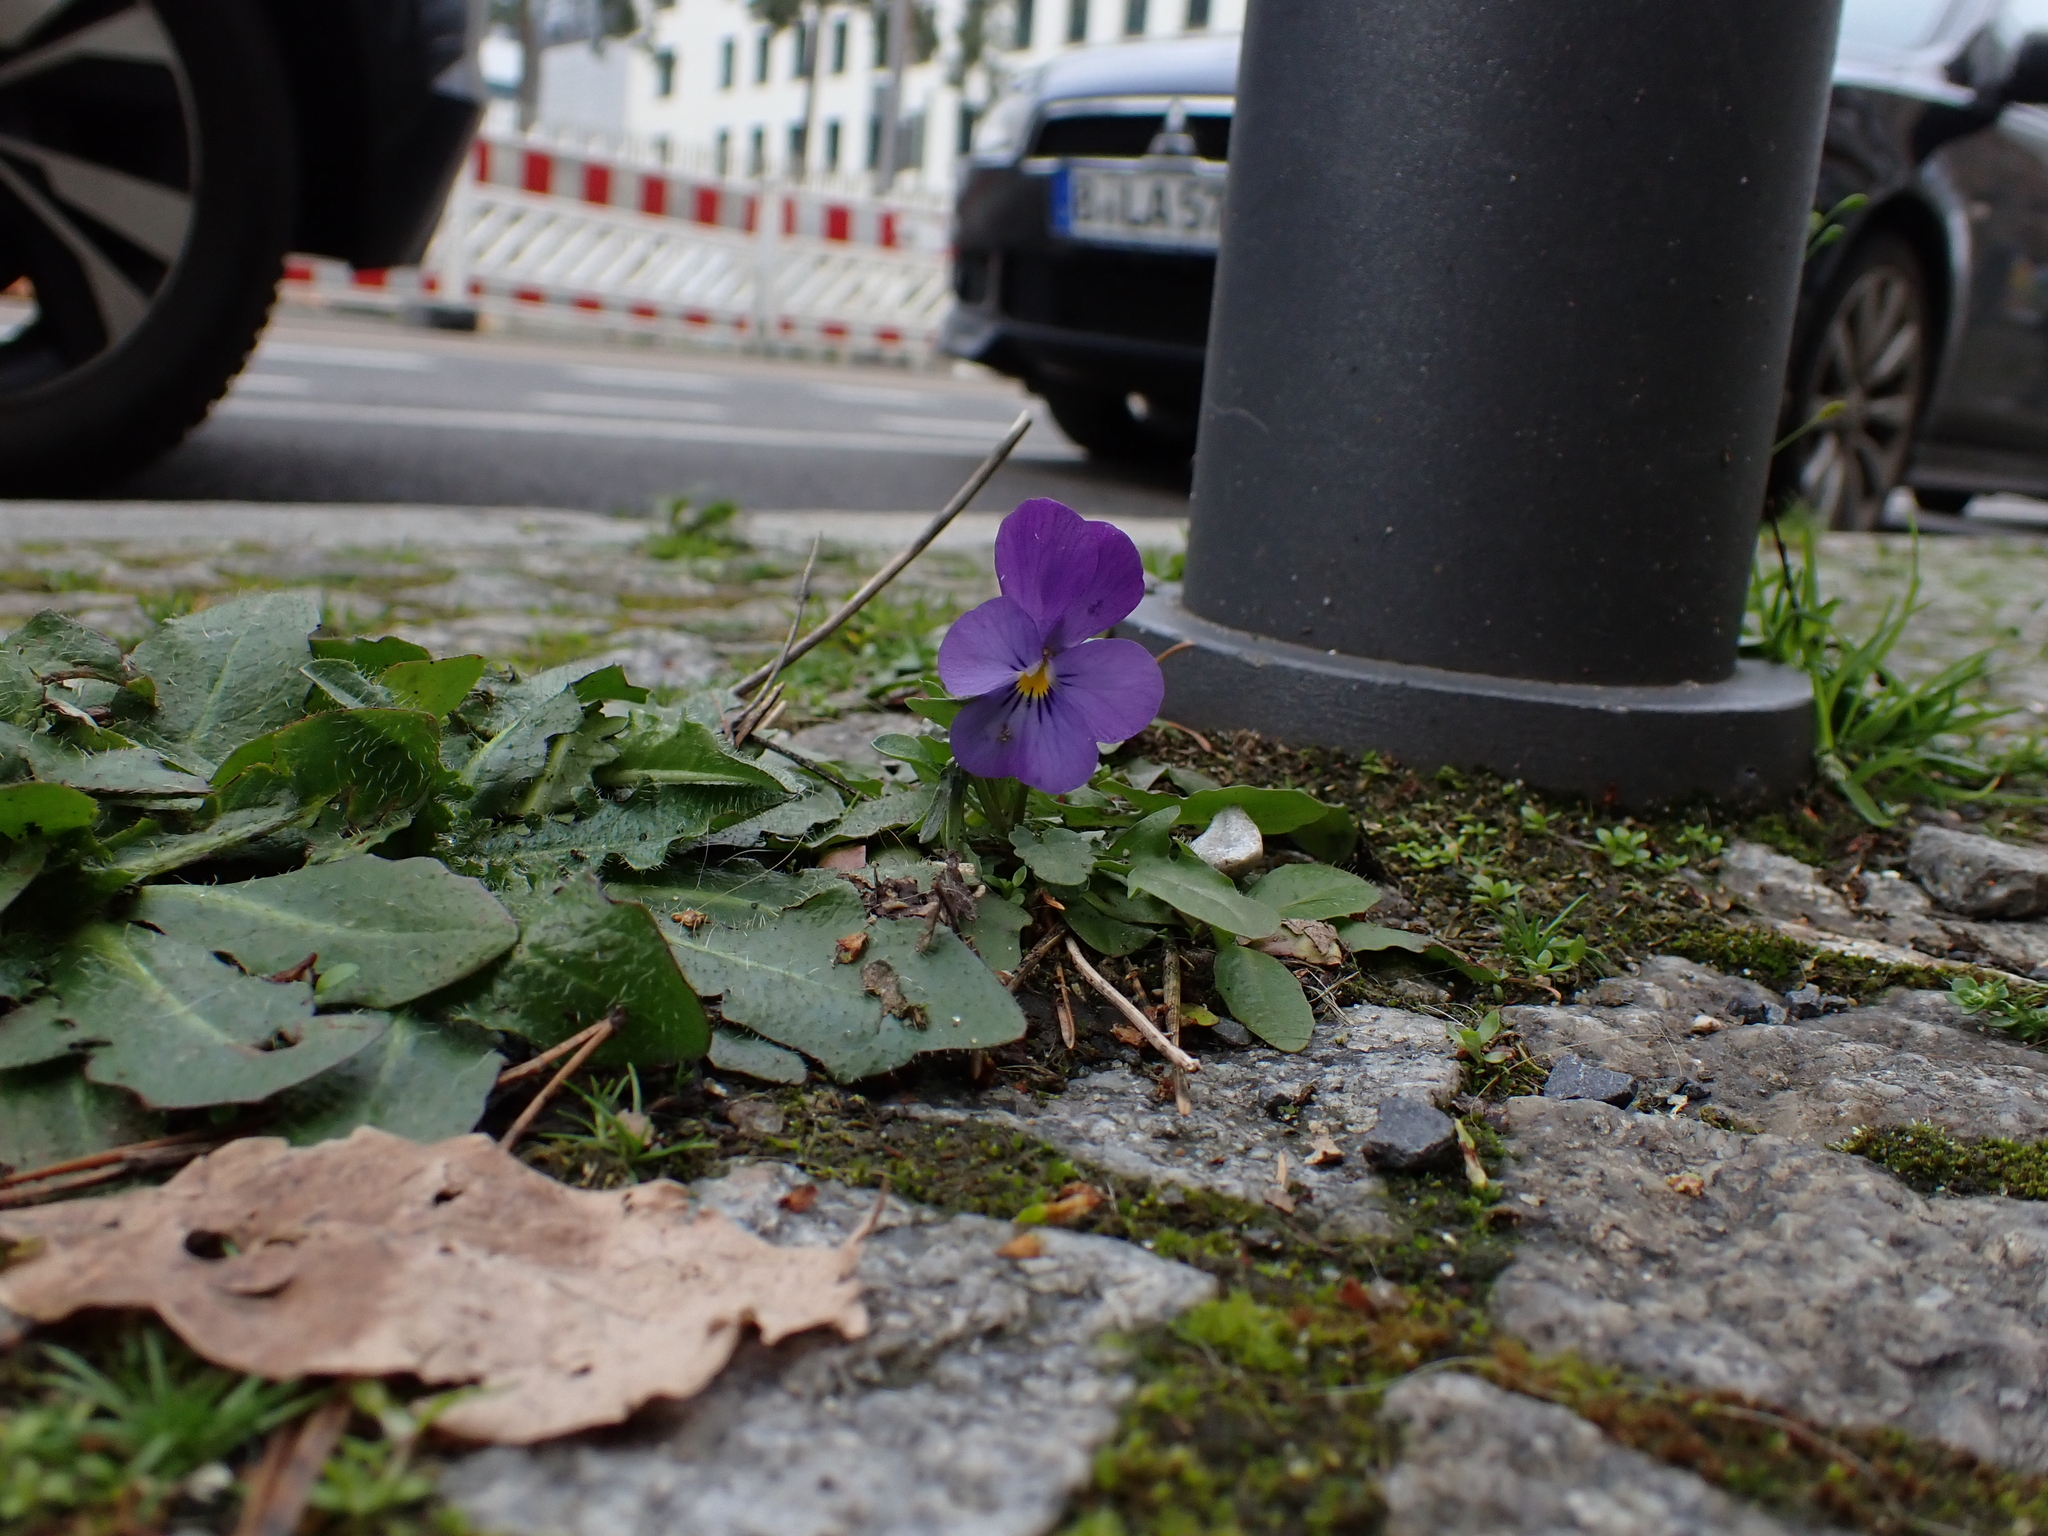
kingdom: Plantae
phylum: Tracheophyta
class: Magnoliopsida
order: Malpighiales
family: Violaceae
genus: Viola
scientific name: Viola williamsii
